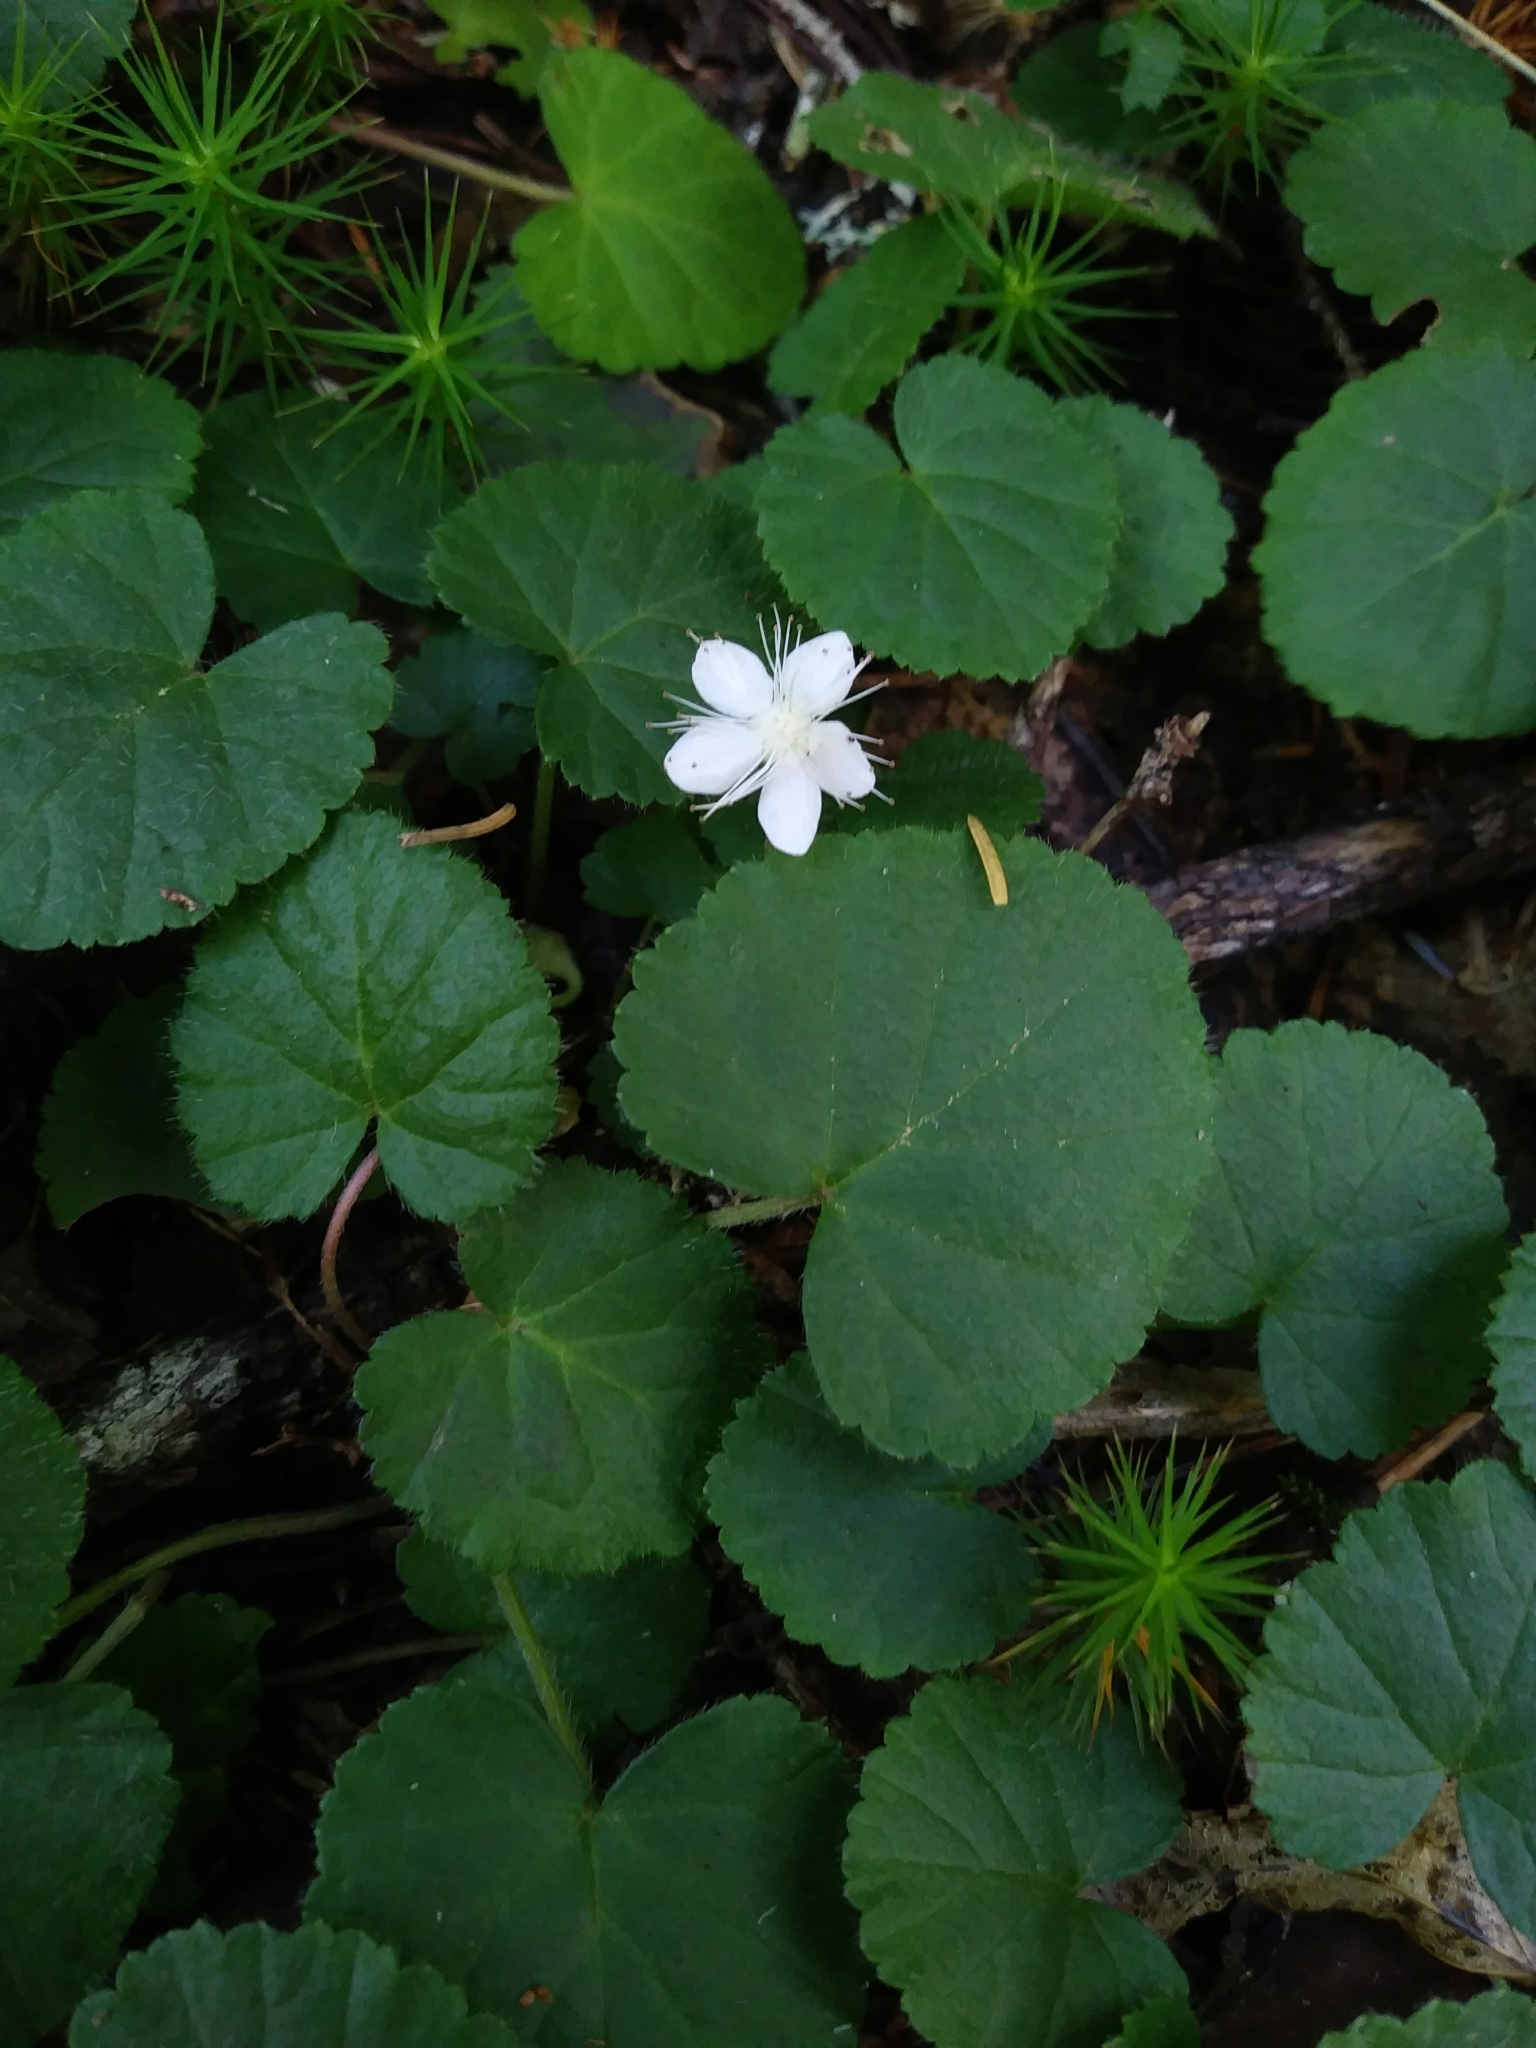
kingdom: Plantae
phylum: Tracheophyta
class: Magnoliopsida
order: Rosales
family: Rosaceae
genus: Dalibarda
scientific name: Dalibarda repens
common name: Dewdrop
